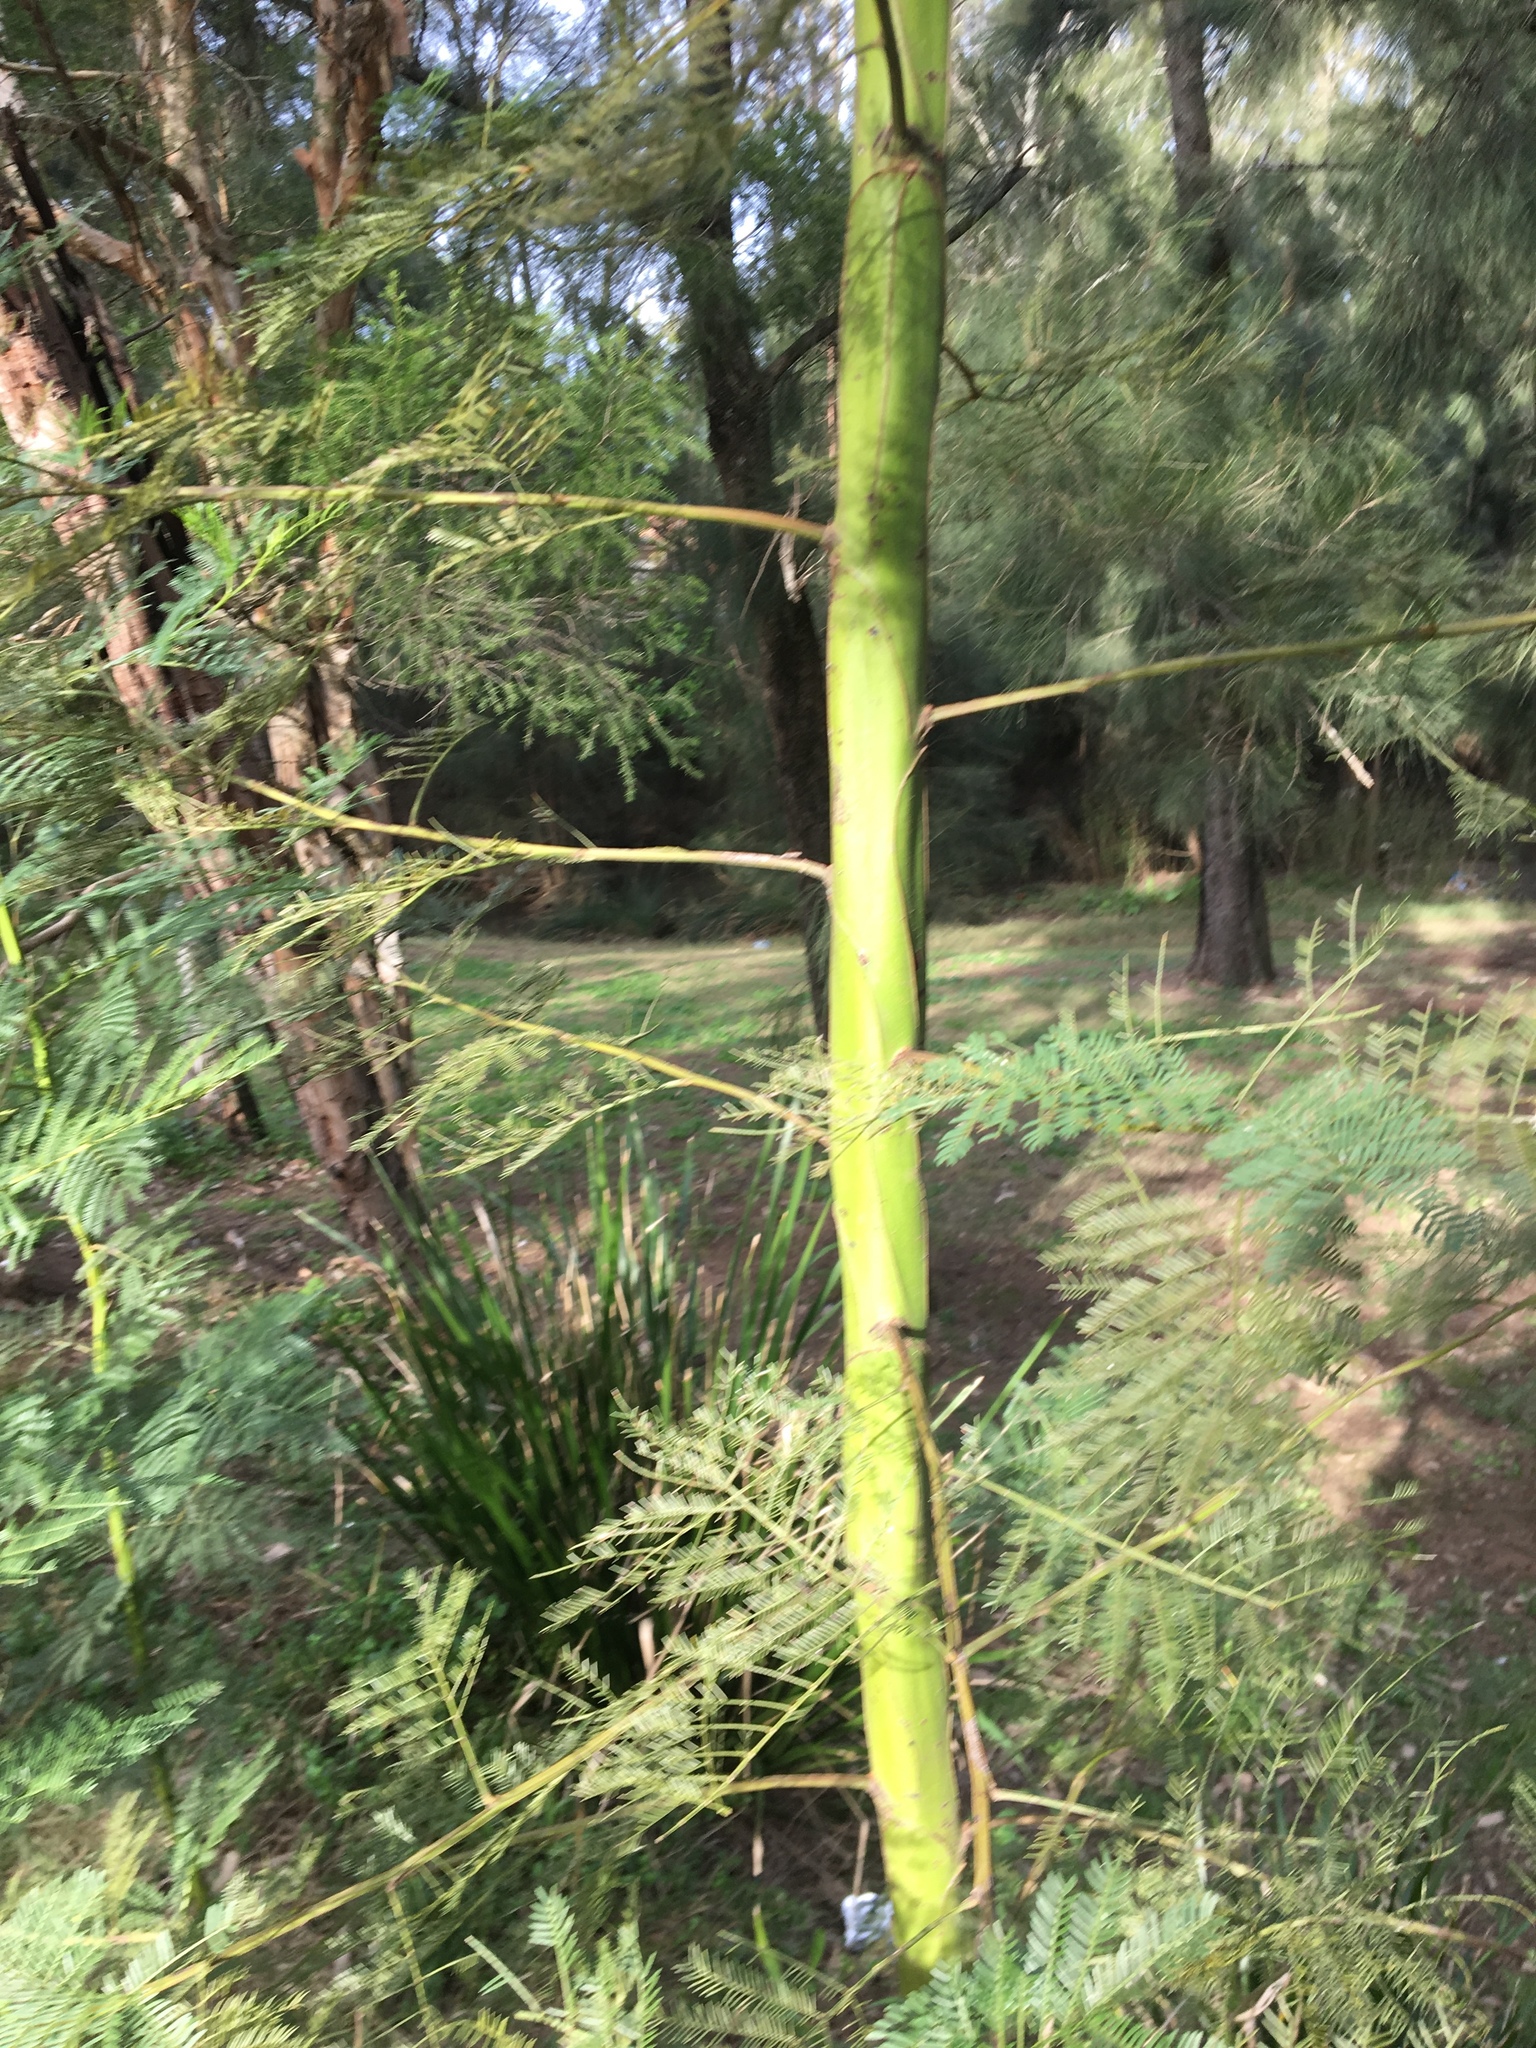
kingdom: Plantae
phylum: Tracheophyta
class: Magnoliopsida
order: Fabales
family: Fabaceae
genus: Acacia
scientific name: Acacia decurrens
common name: Green wattle
